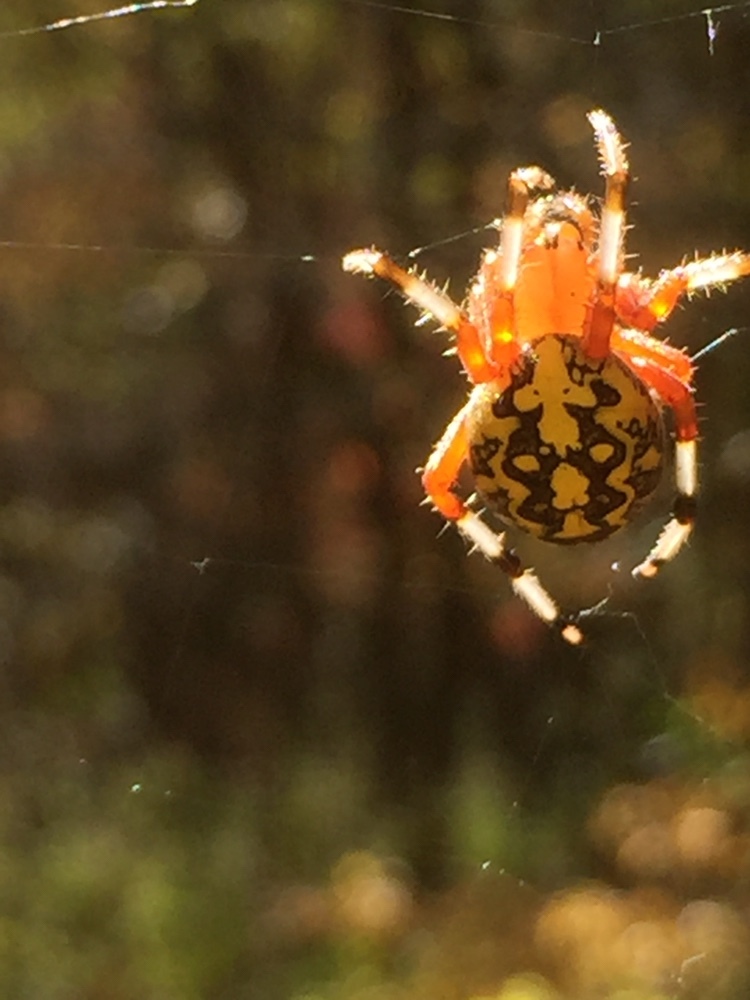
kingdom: Animalia
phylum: Arthropoda
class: Arachnida
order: Araneae
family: Araneidae
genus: Araneus
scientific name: Araneus marmoreus
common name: Marbled orbweaver
